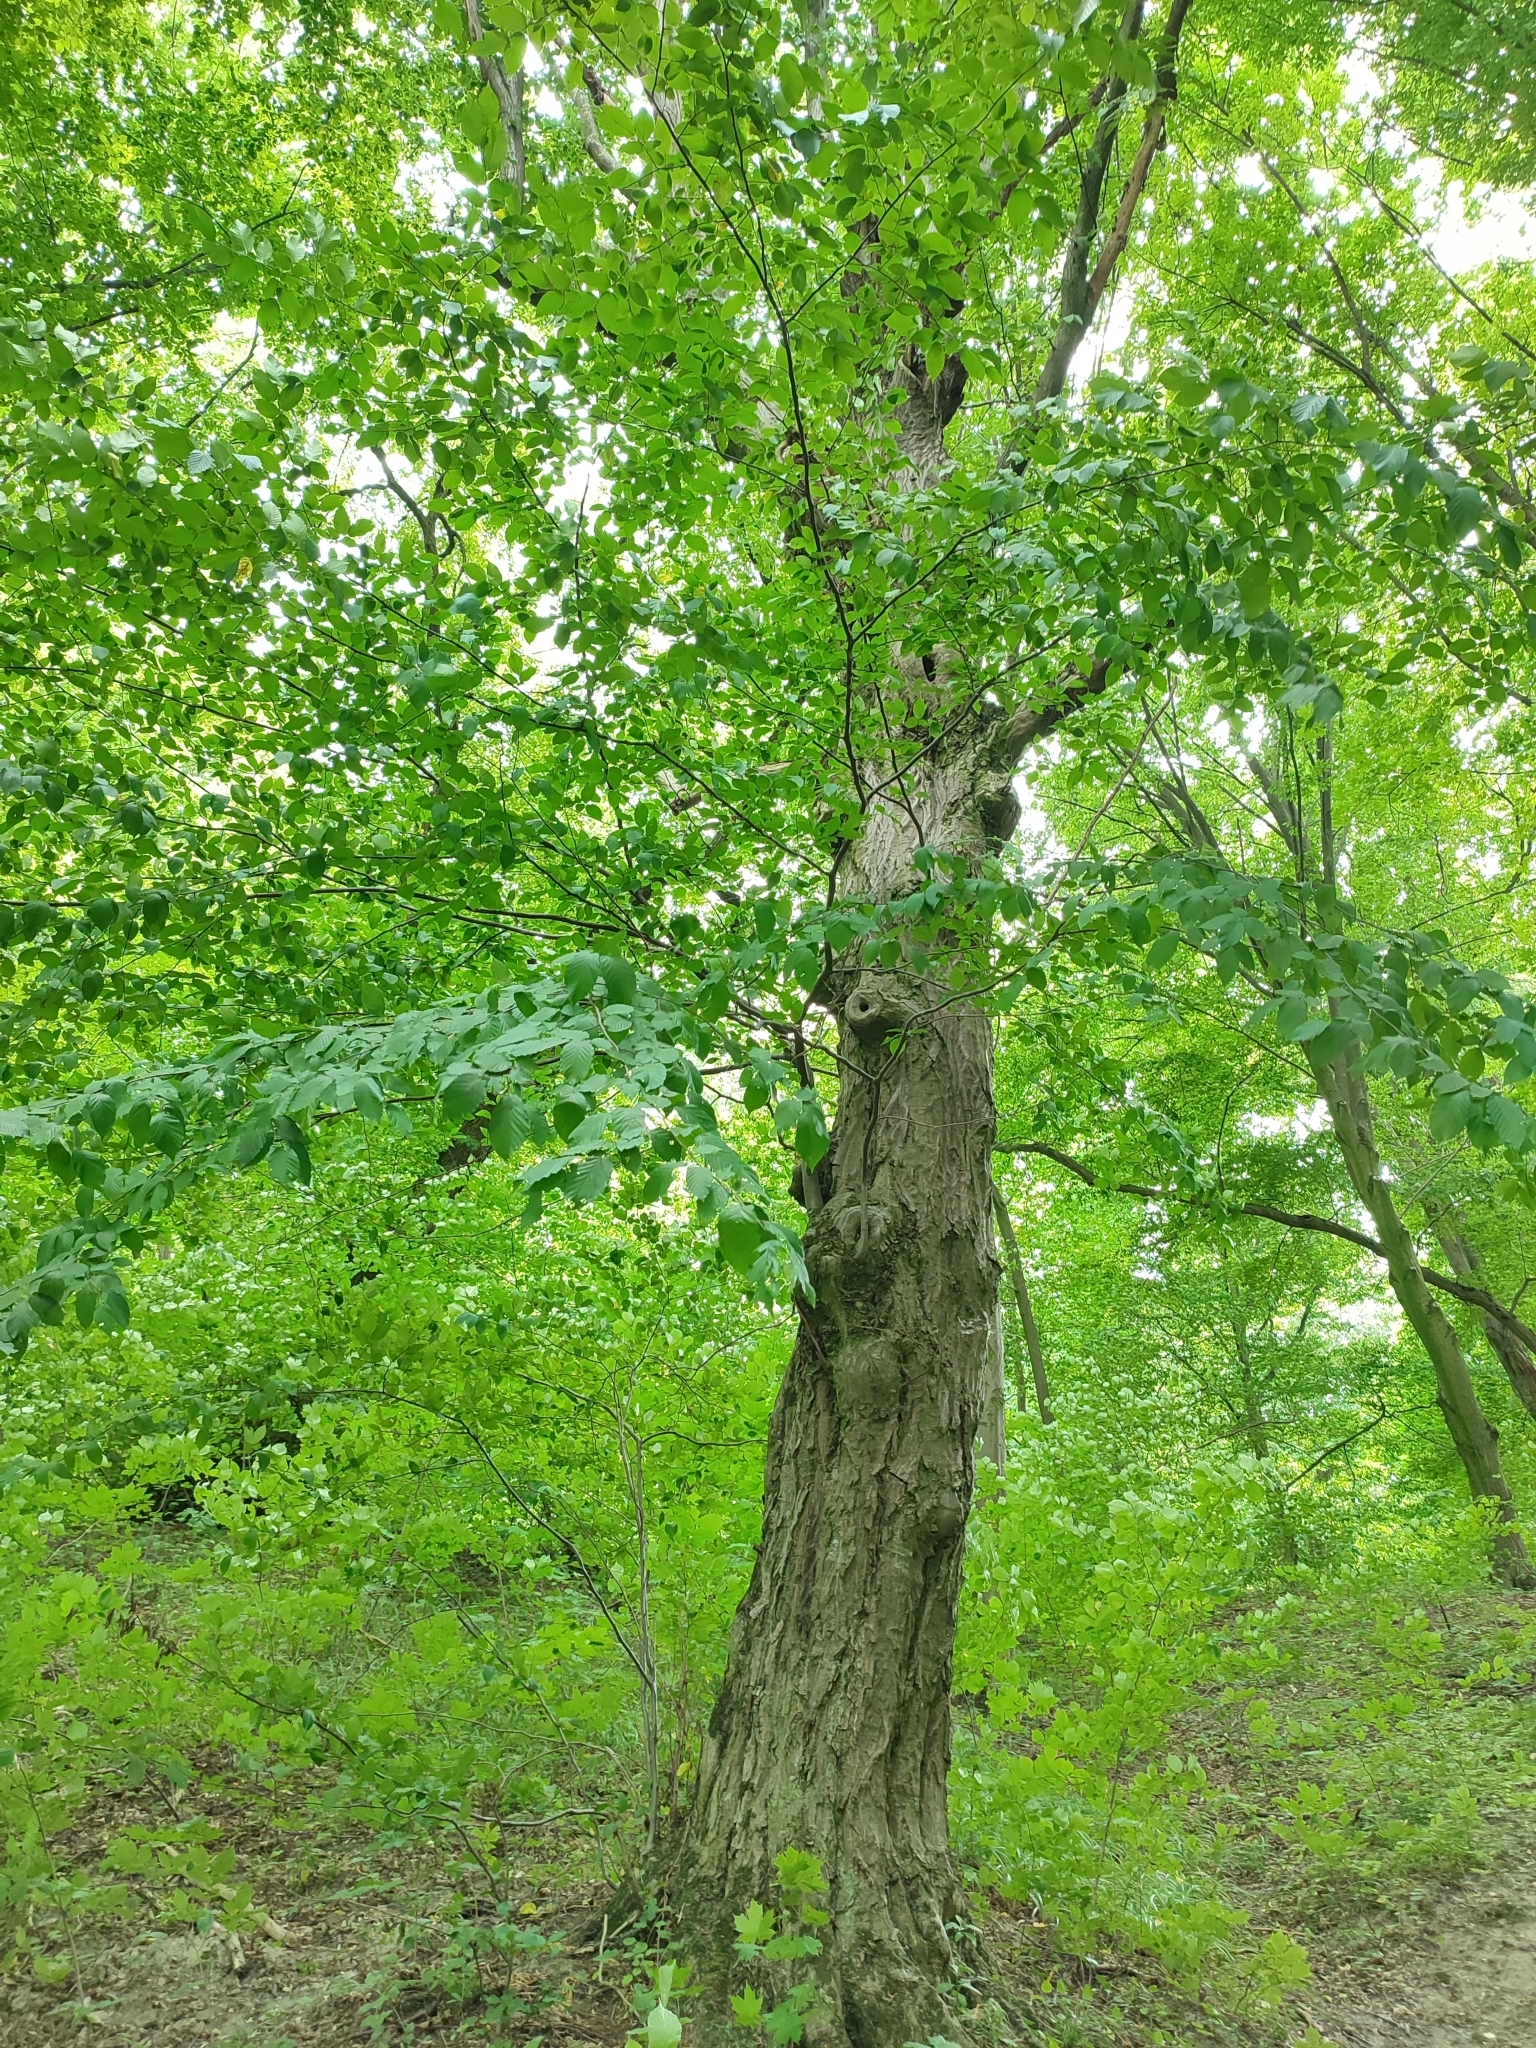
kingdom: Plantae
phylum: Tracheophyta
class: Magnoliopsida
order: Fagales
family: Betulaceae
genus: Carpinus
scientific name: Carpinus betulus
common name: Hornbeam
